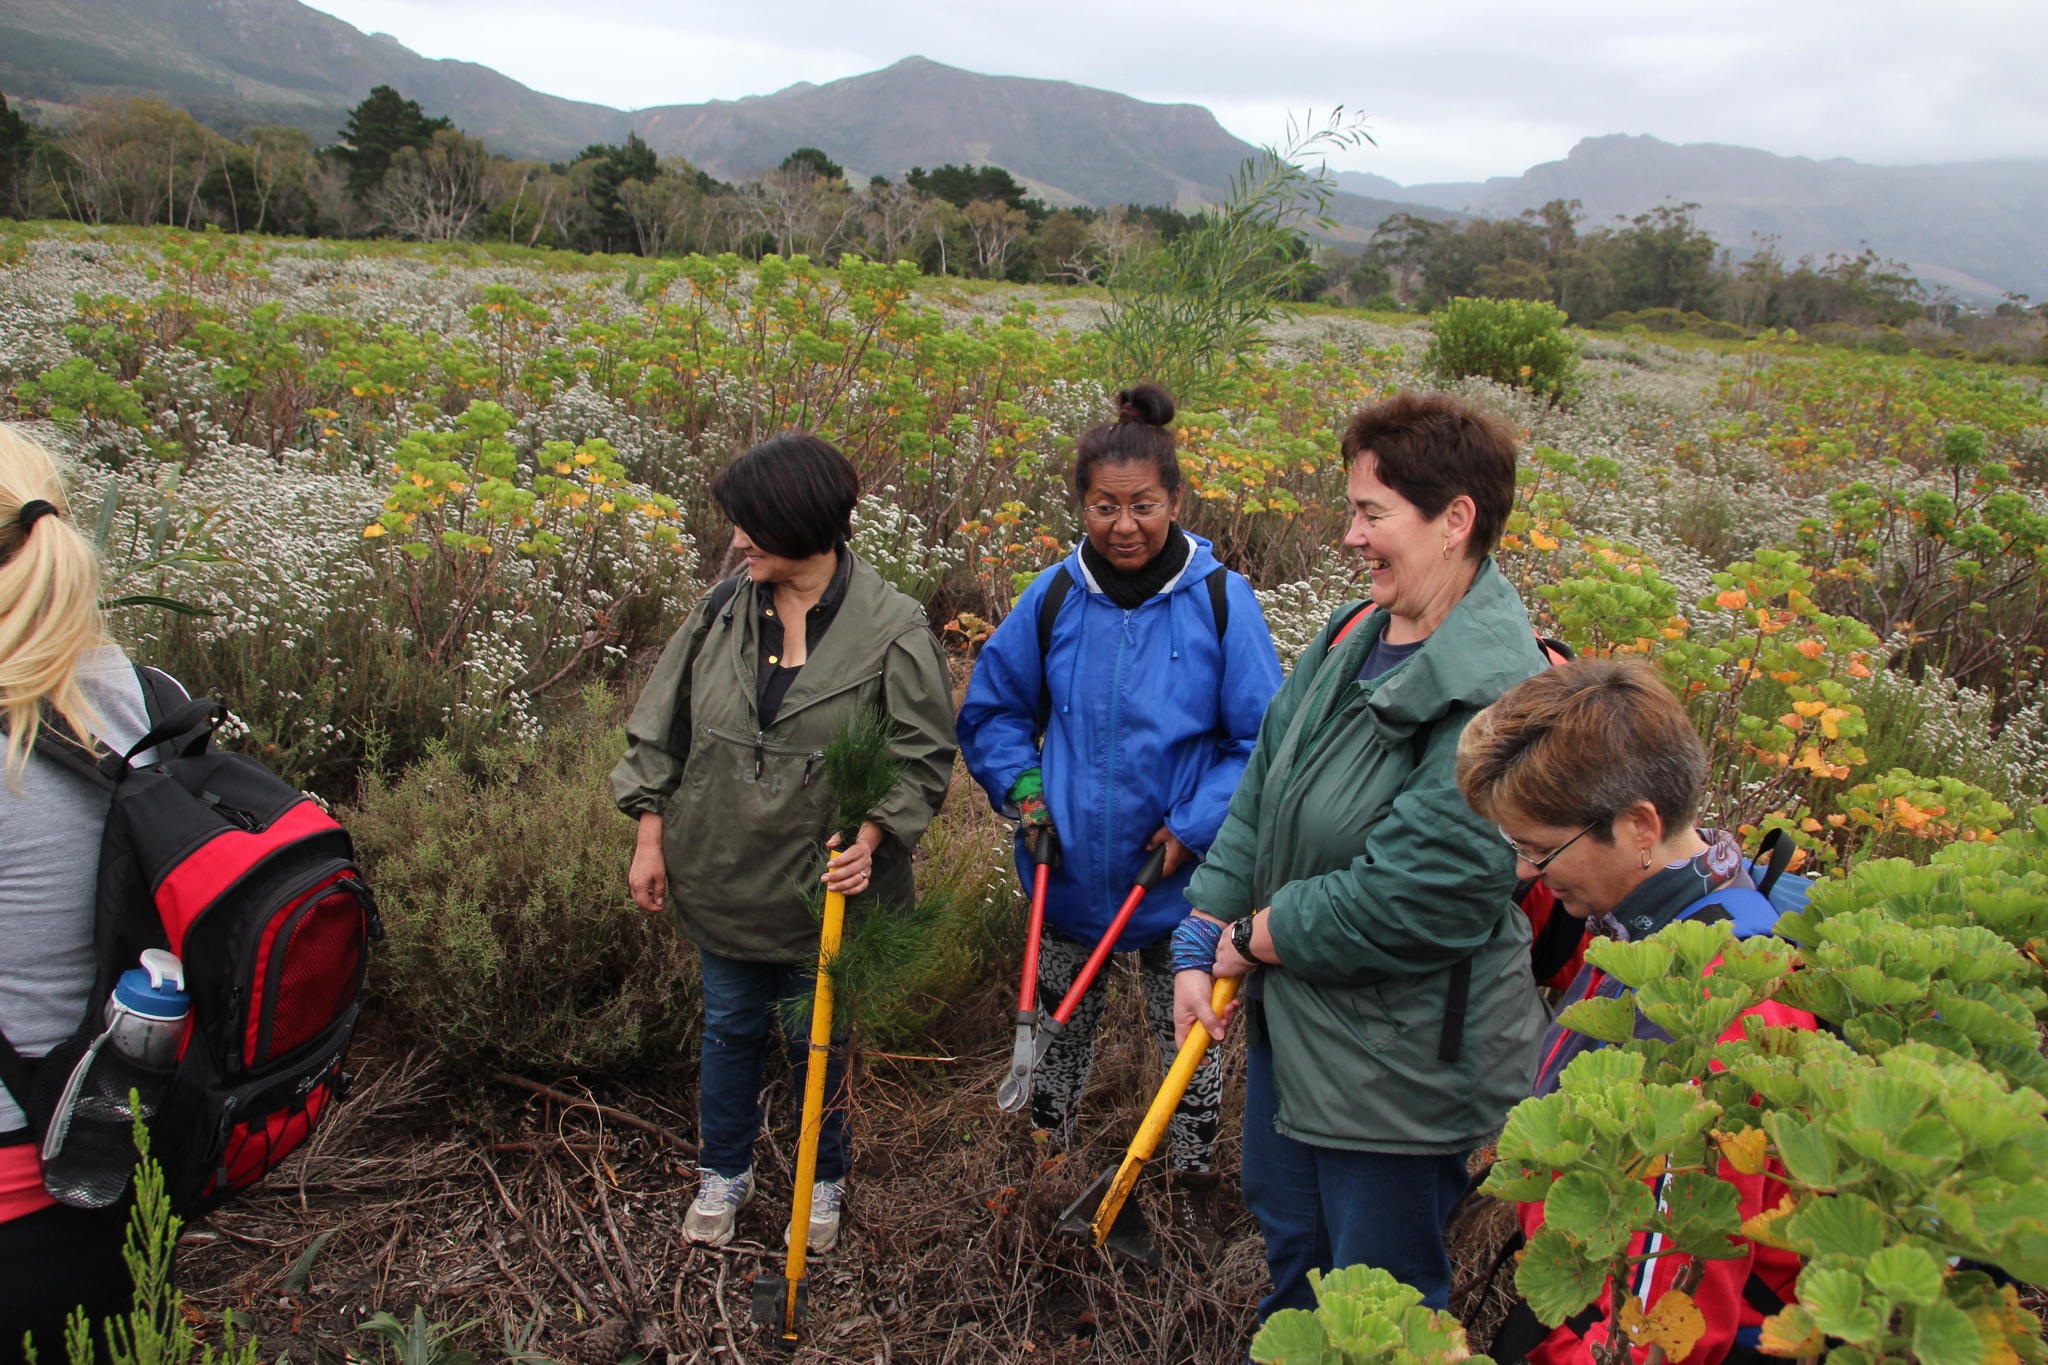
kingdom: Plantae
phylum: Tracheophyta
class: Magnoliopsida
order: Fabales
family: Fabaceae
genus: Acacia
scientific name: Acacia saligna
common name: Orange wattle
